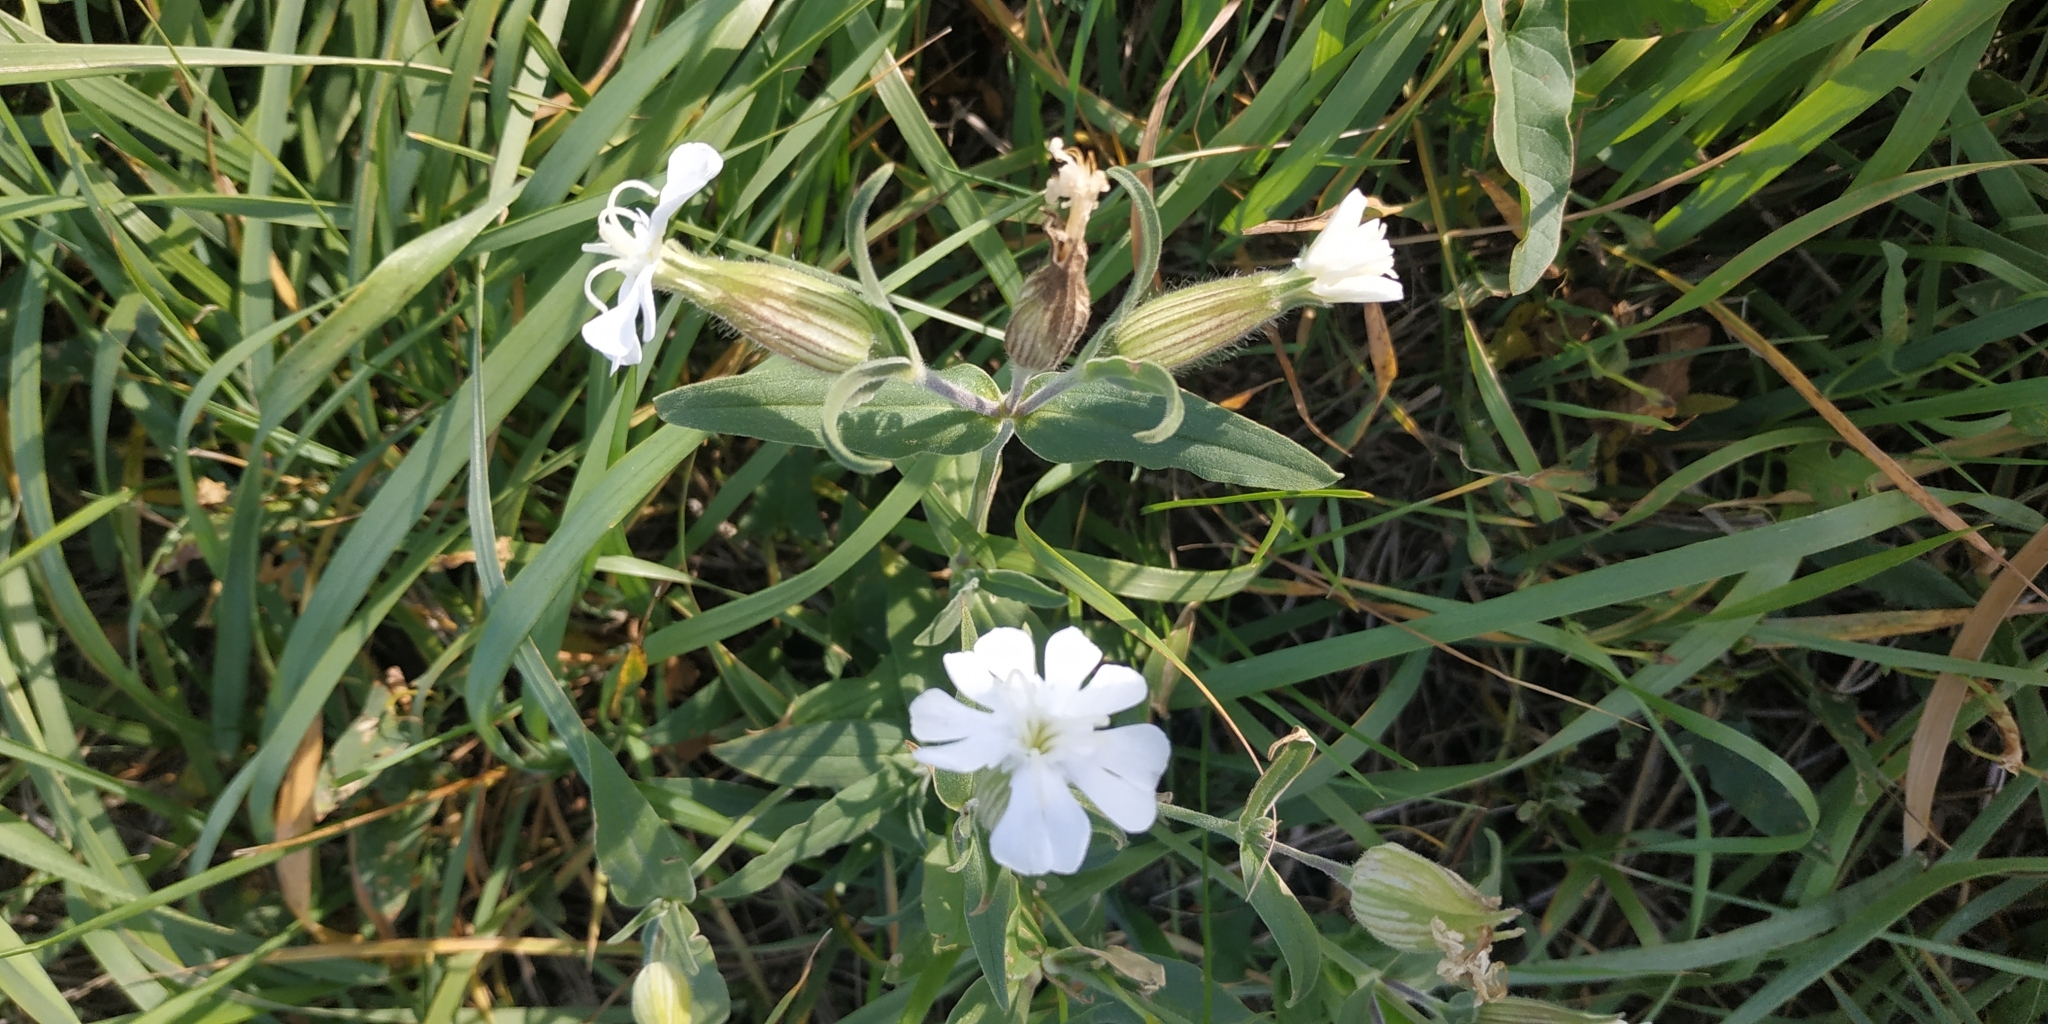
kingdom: Plantae
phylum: Tracheophyta
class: Magnoliopsida
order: Caryophyllales
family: Caryophyllaceae
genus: Silene
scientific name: Silene latifolia
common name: White campion
